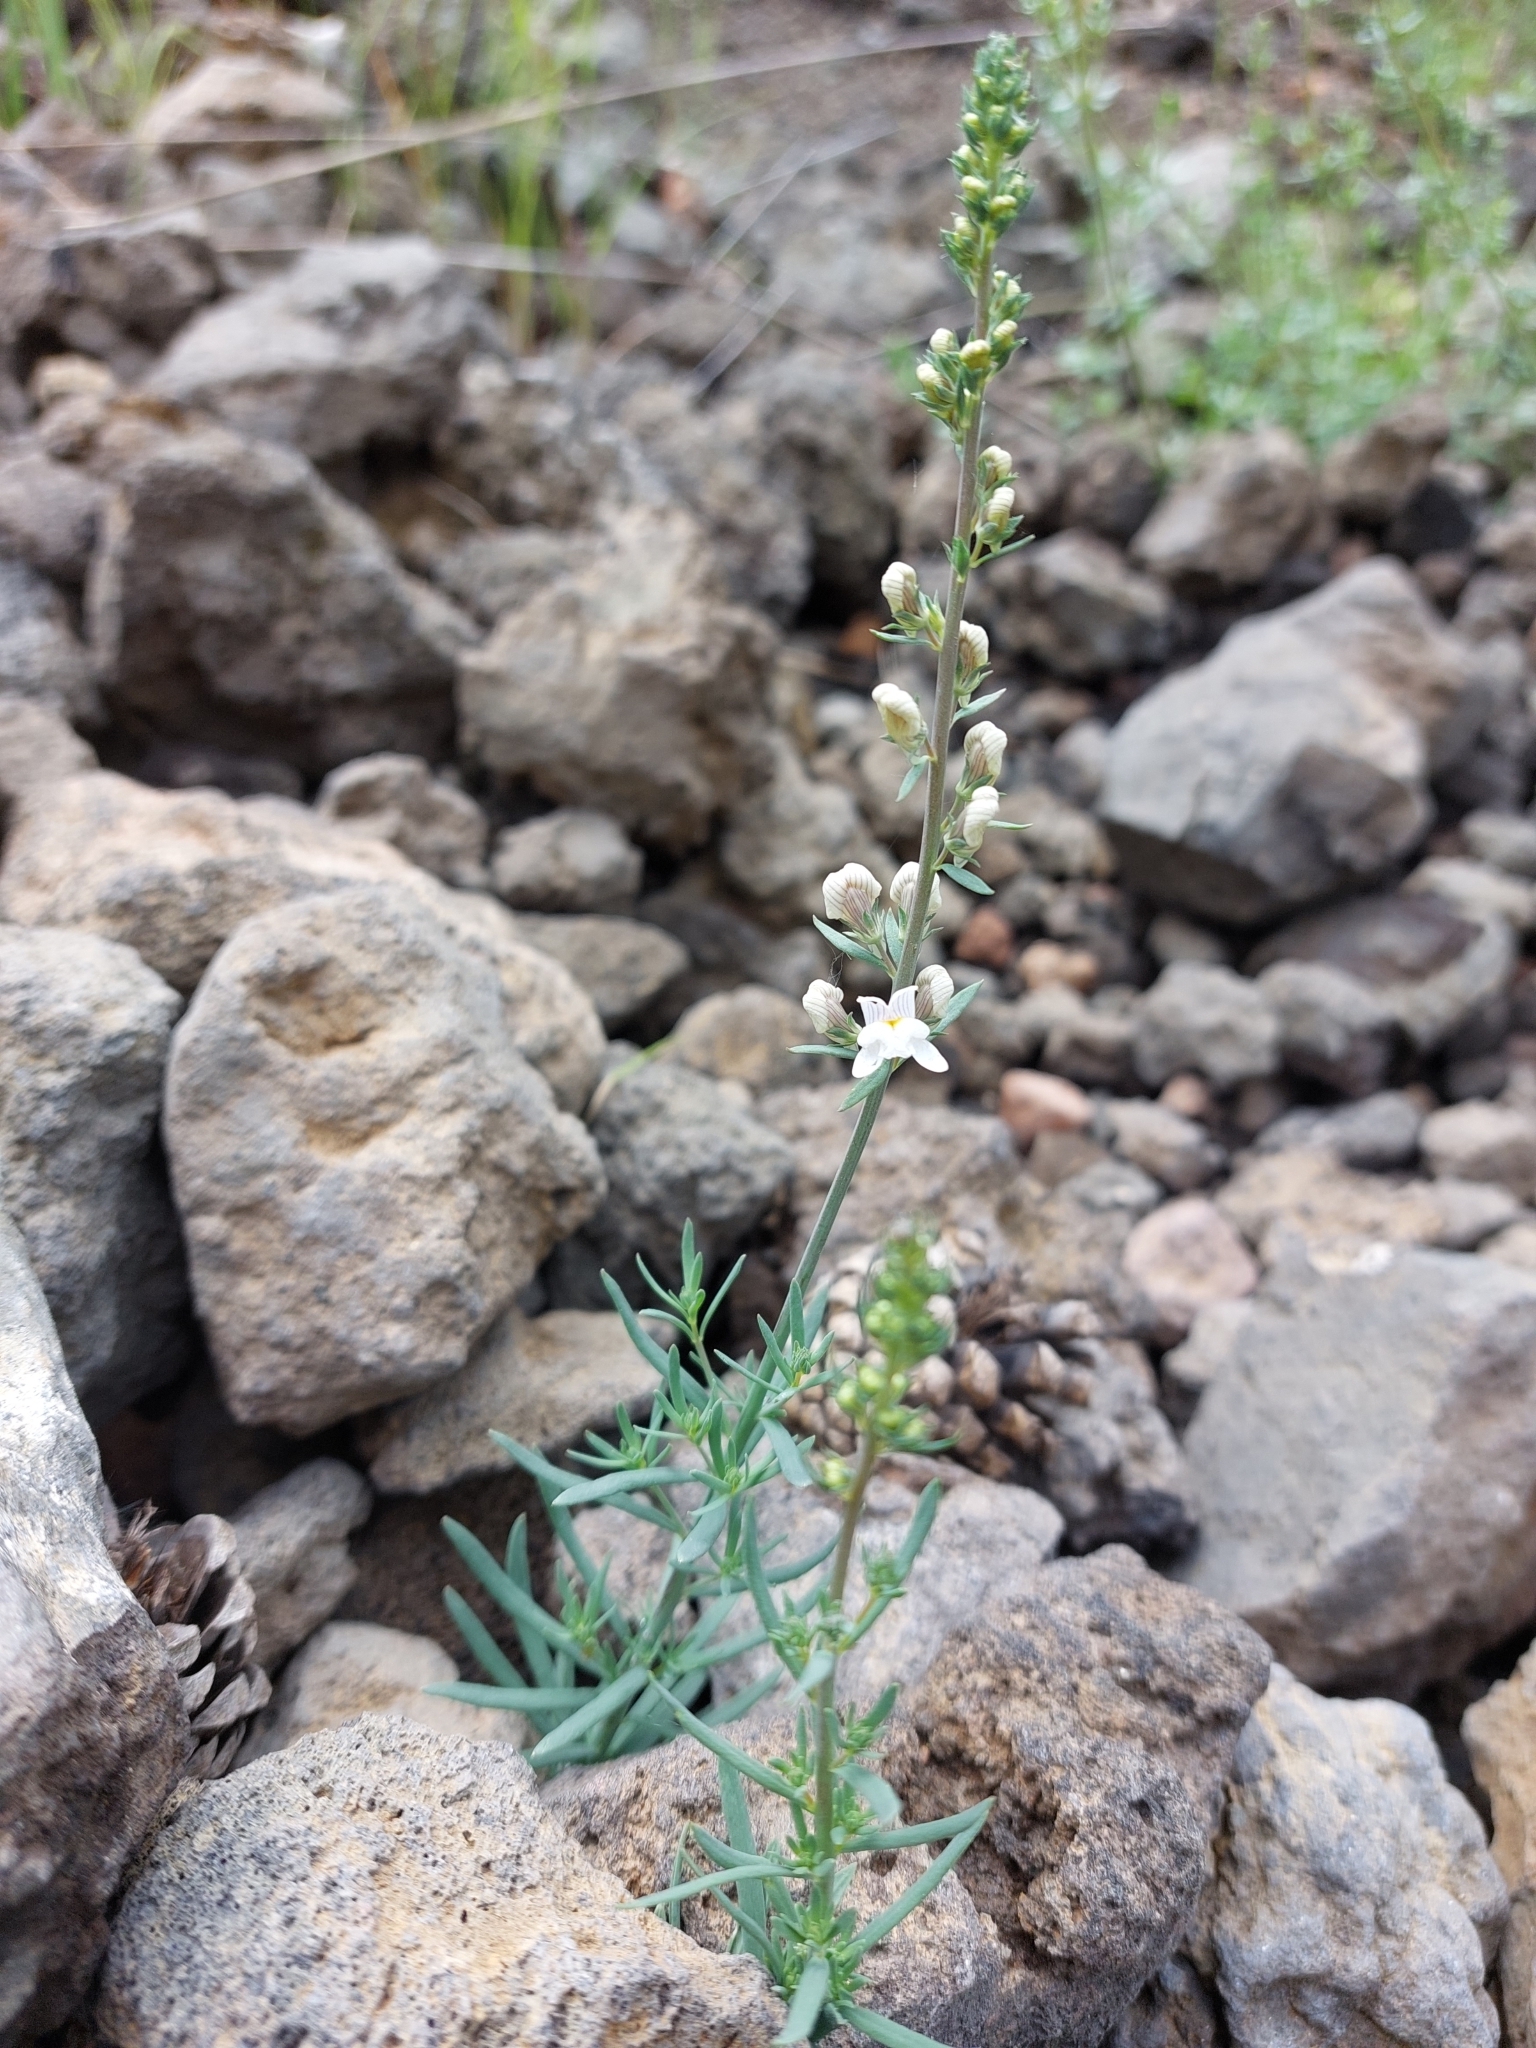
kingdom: Plantae
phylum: Tracheophyta
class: Magnoliopsida
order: Lamiales
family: Plantaginaceae
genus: Linaria
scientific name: Linaria repens
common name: Pale toadflax
